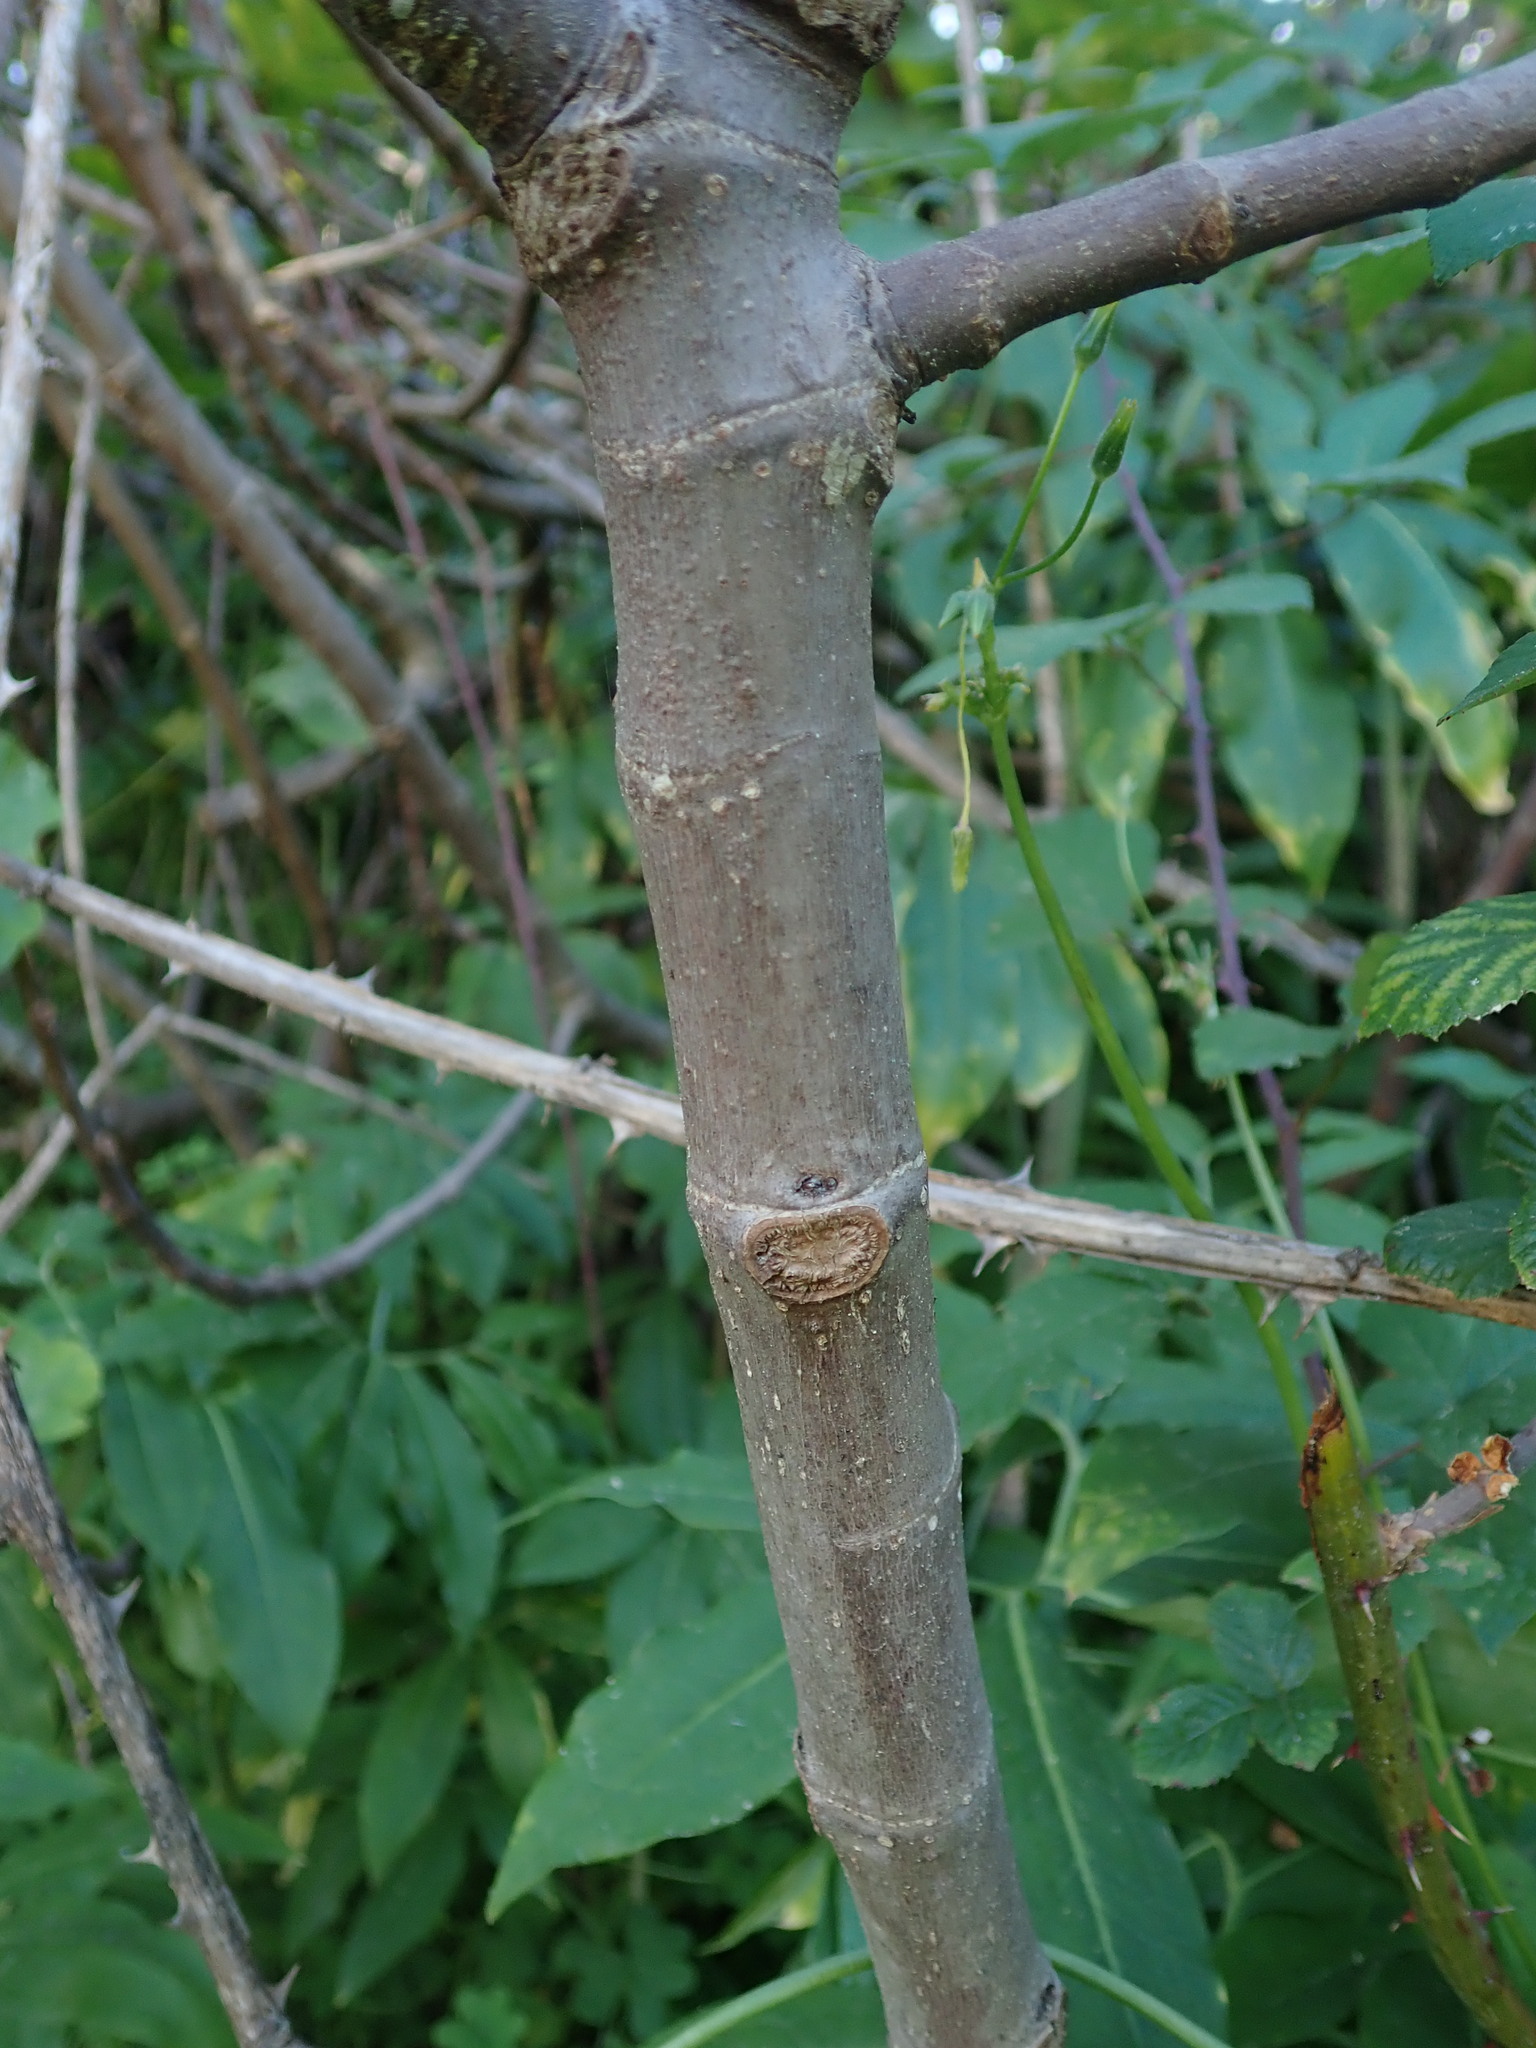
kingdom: Plantae
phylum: Tracheophyta
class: Magnoliopsida
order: Rosales
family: Moraceae
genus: Ficus
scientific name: Ficus carica
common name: Fig
